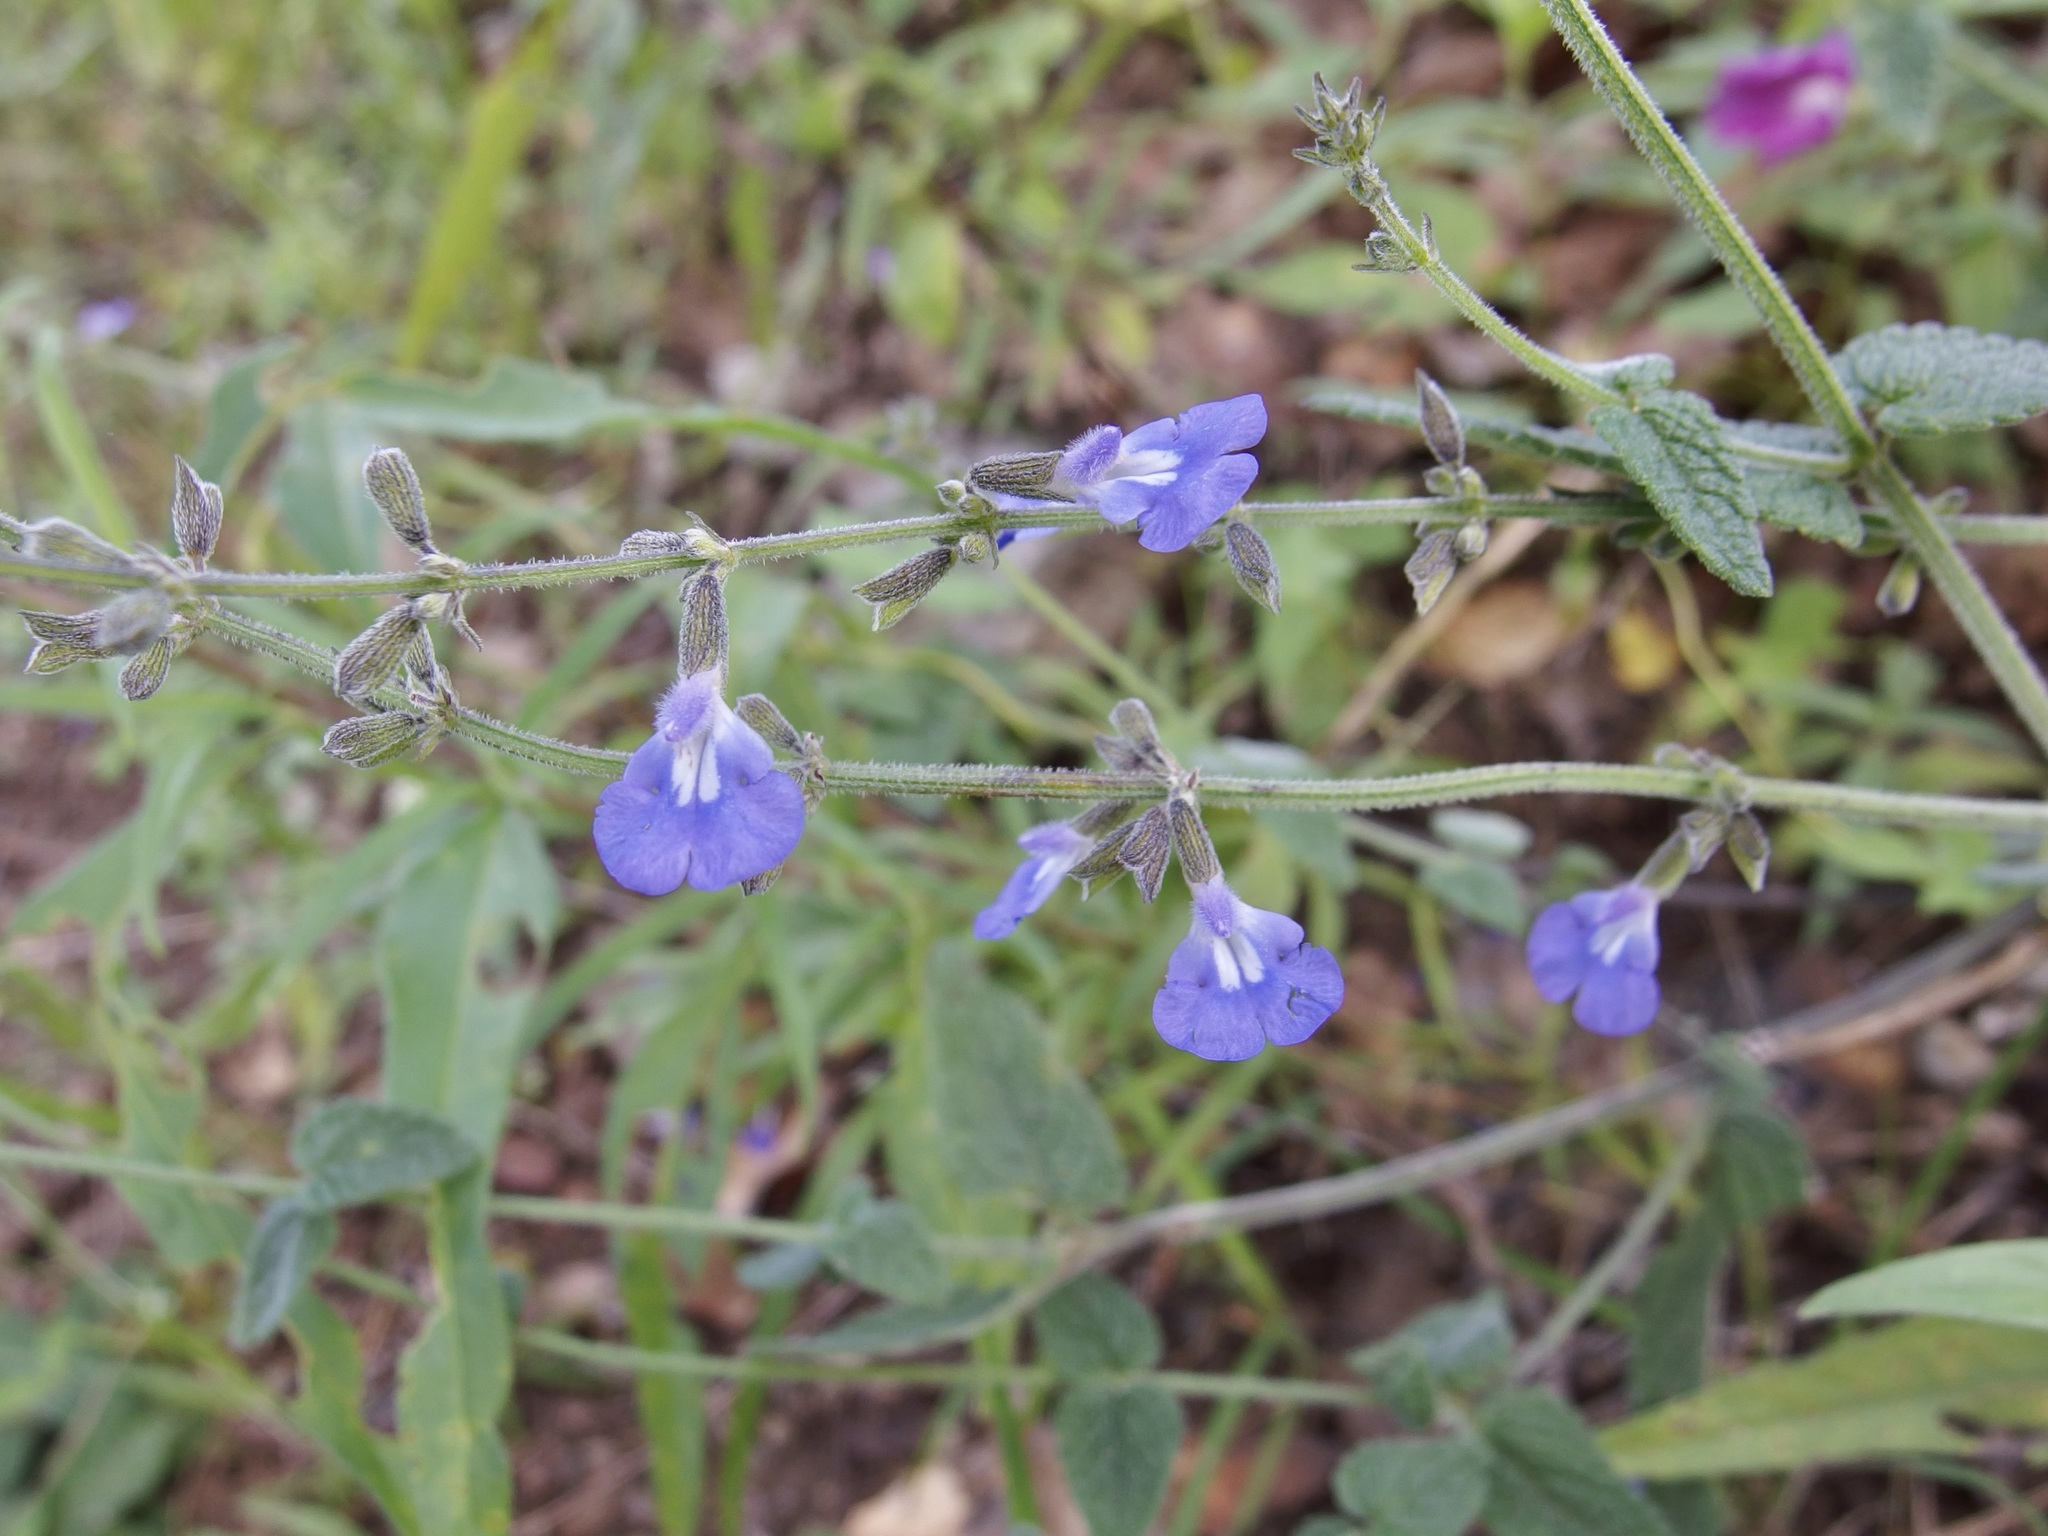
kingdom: Plantae
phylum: Tracheophyta
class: Magnoliopsida
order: Lamiales
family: Lamiaceae
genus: Salvia
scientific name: Salvia alamosana
